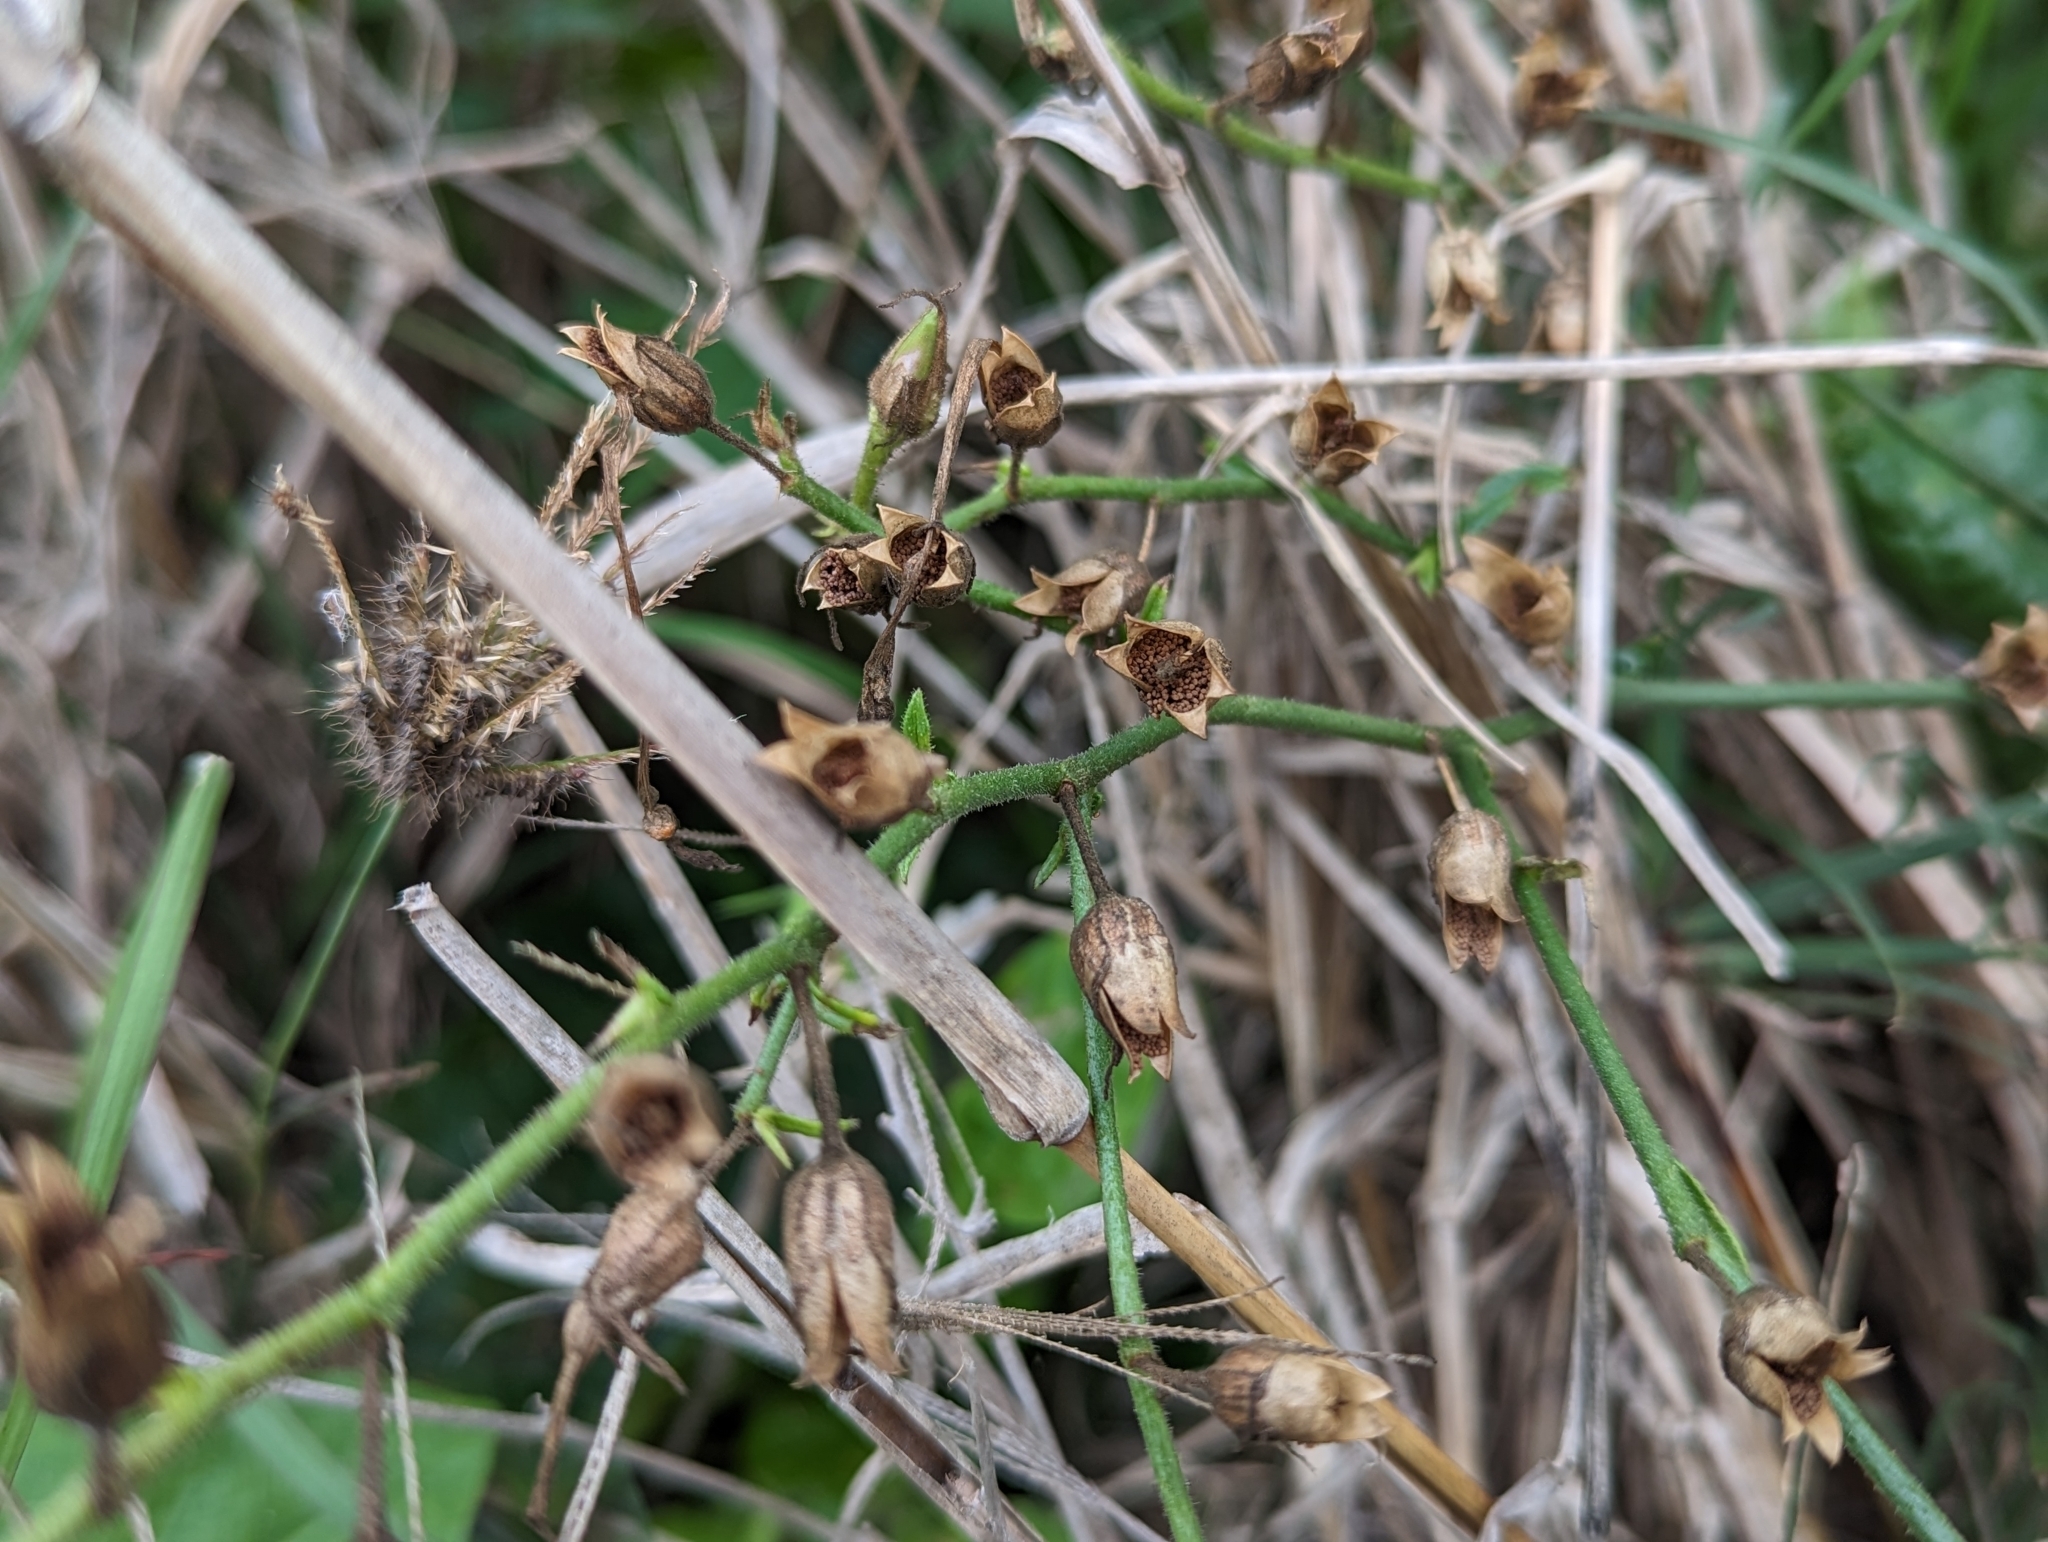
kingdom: Plantae
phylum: Tracheophyta
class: Magnoliopsida
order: Solanales
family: Solanaceae
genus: Nicotiana
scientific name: Nicotiana plumbaginifolia
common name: Tex-mex tobacco
